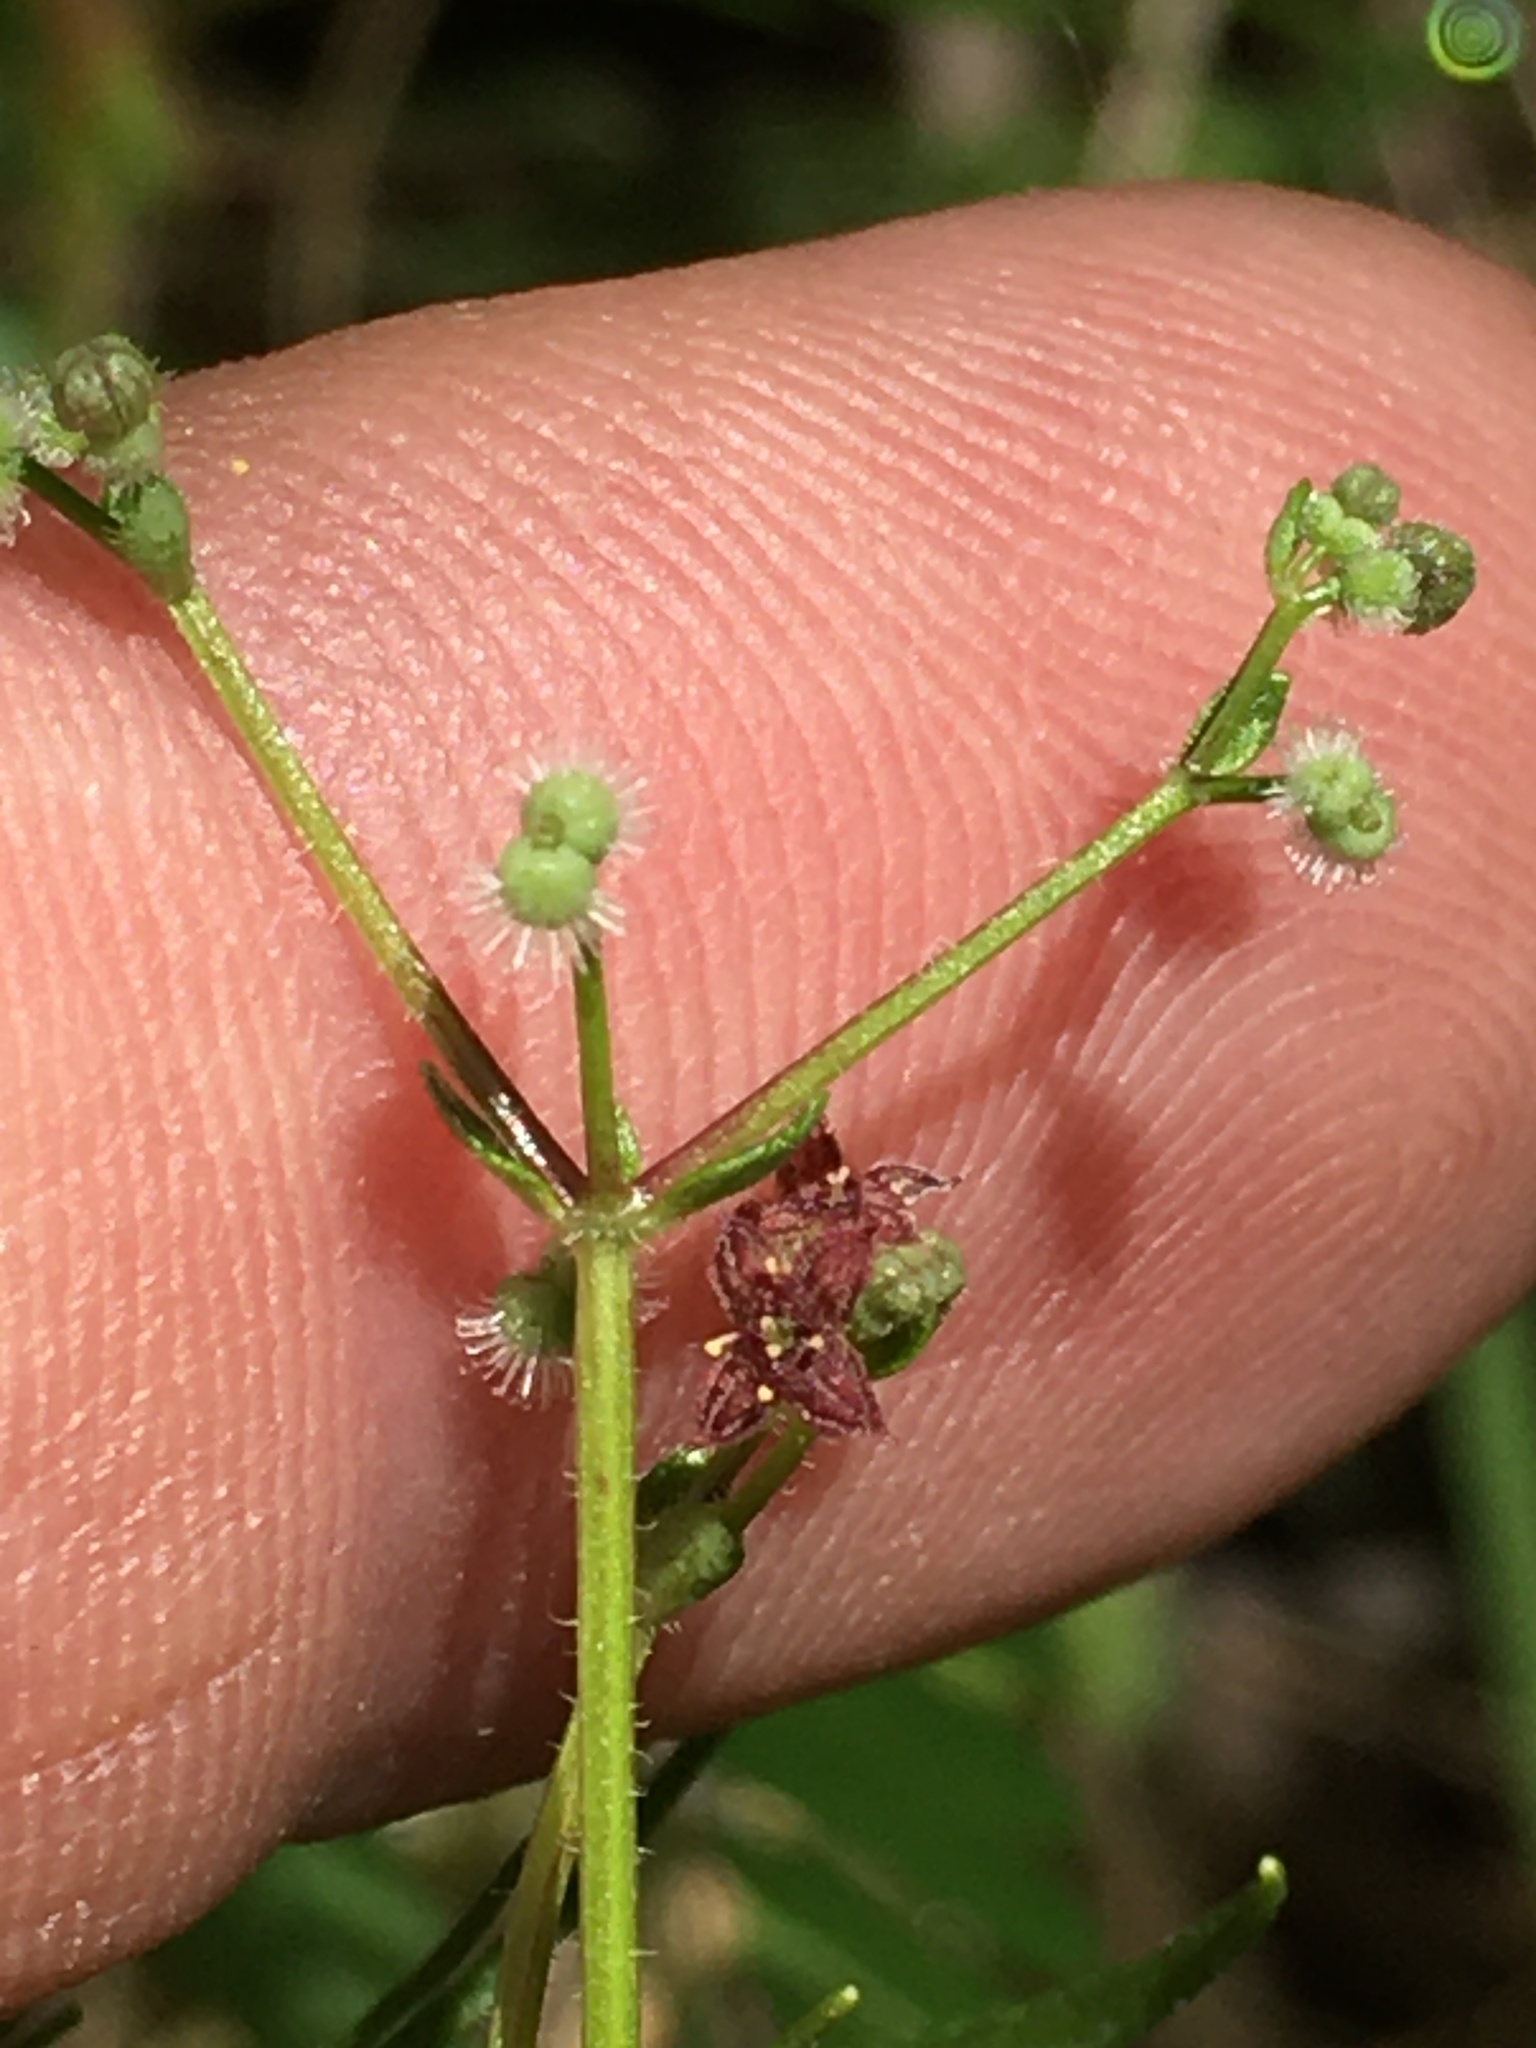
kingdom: Plantae
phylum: Tracheophyta
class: Magnoliopsida
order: Gentianales
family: Rubiaceae
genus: Galium
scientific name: Galium pilosum
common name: Hairy bedstraw
